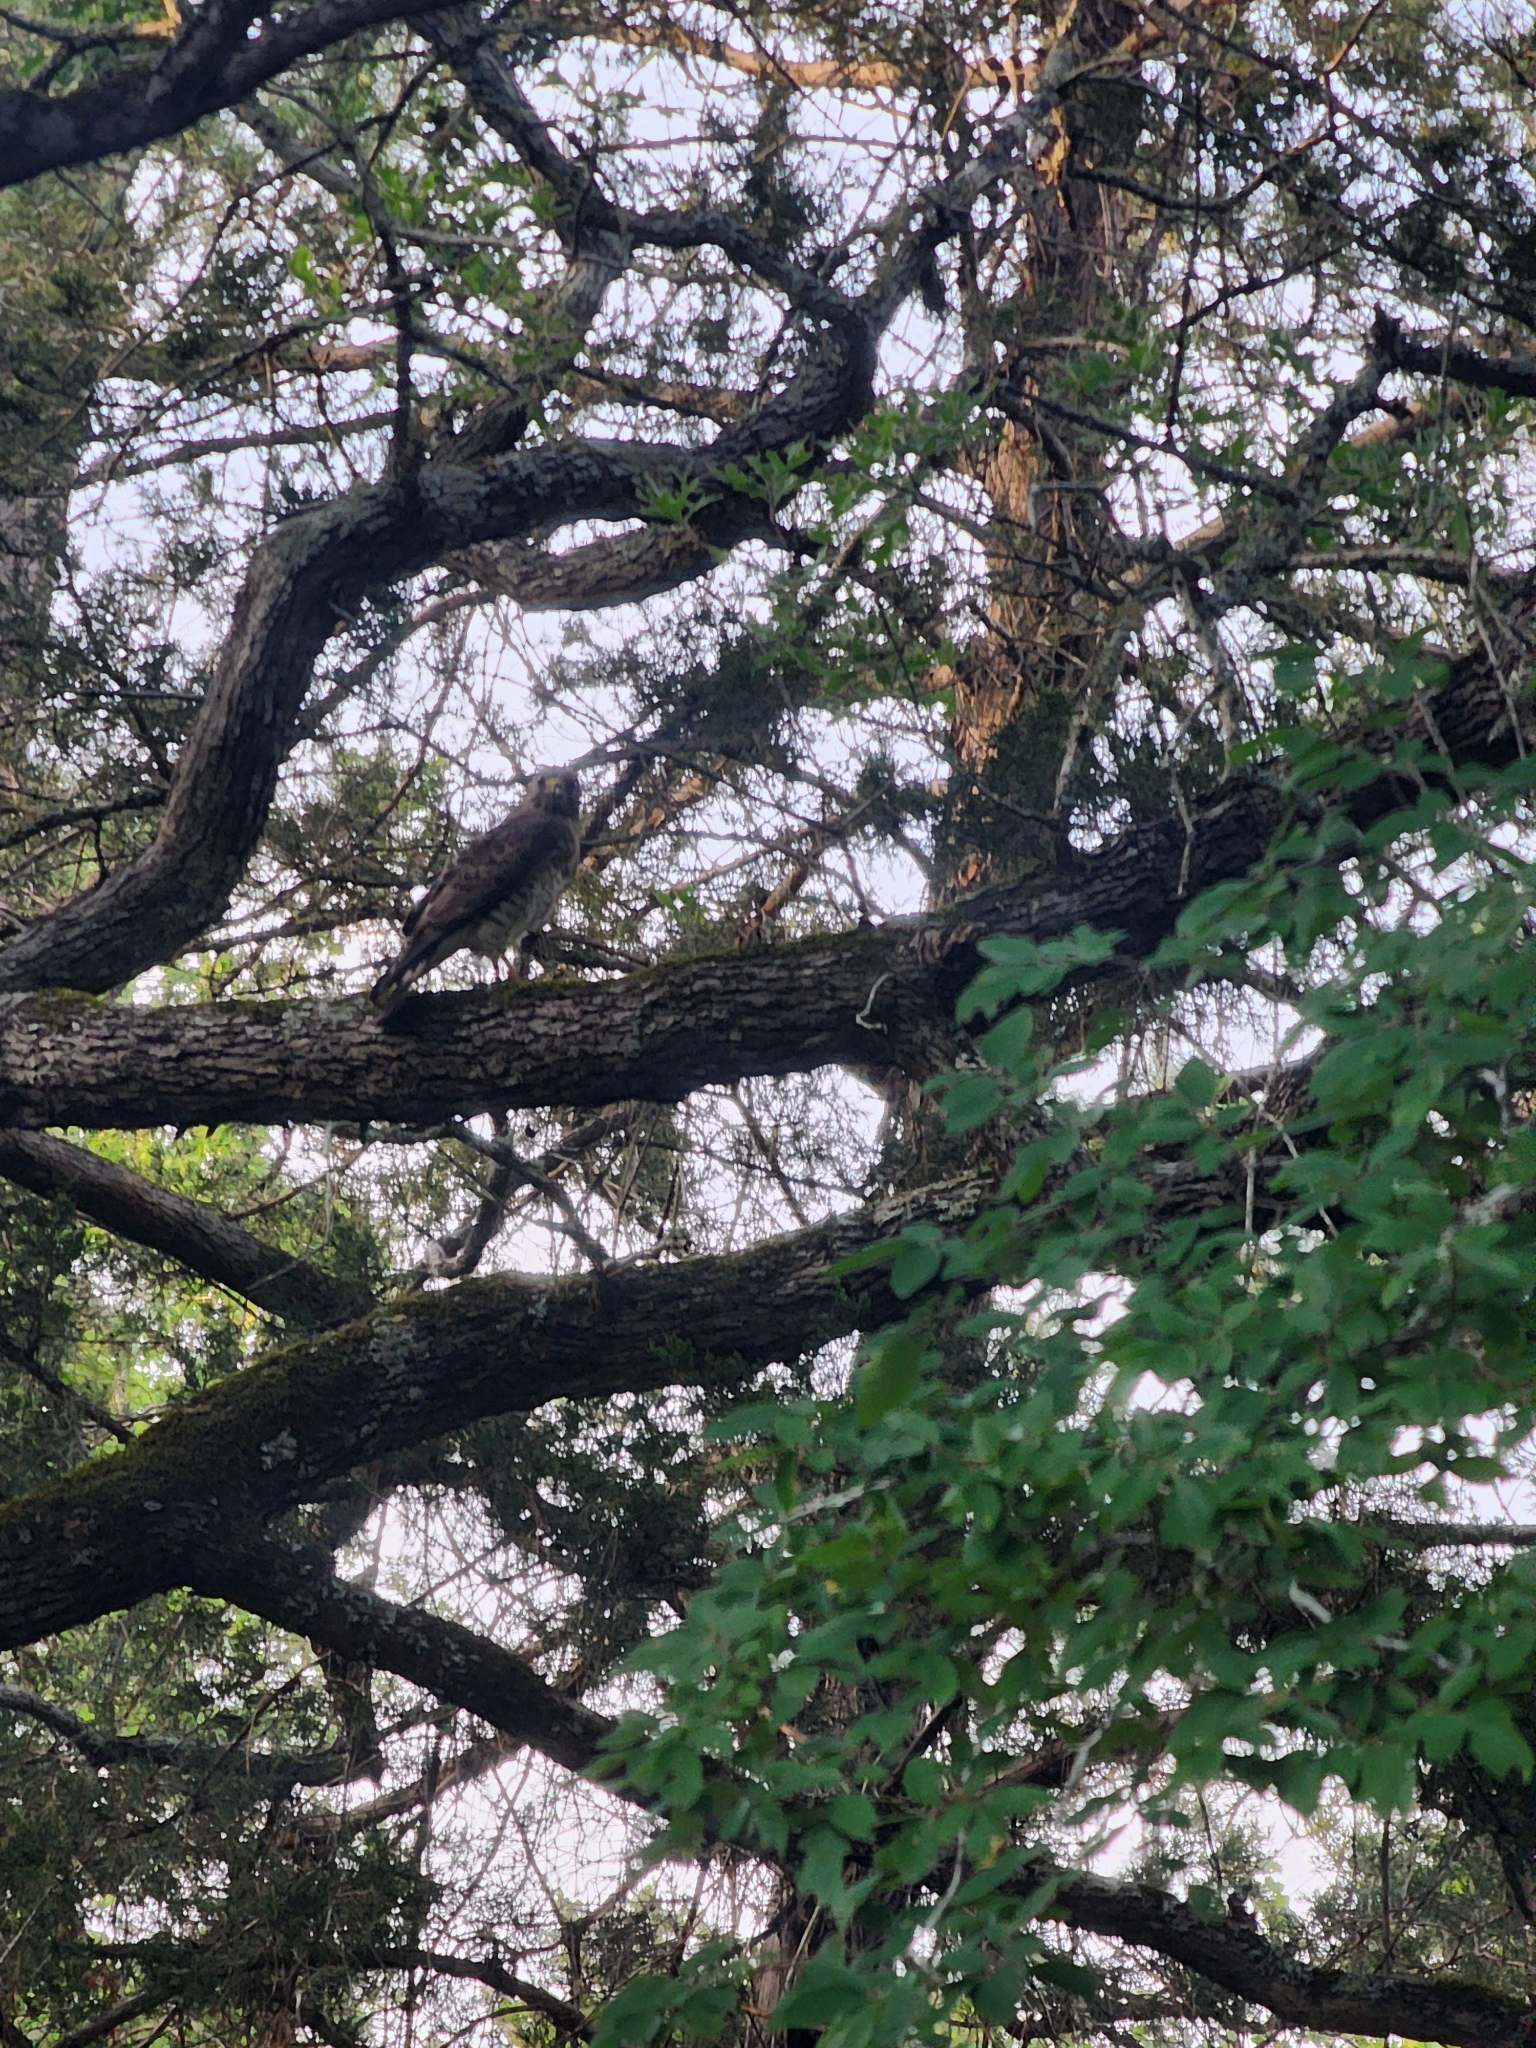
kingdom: Animalia
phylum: Chordata
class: Aves
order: Accipitriformes
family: Accipitridae
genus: Buteo
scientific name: Buteo platypterus
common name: Broad-winged hawk
